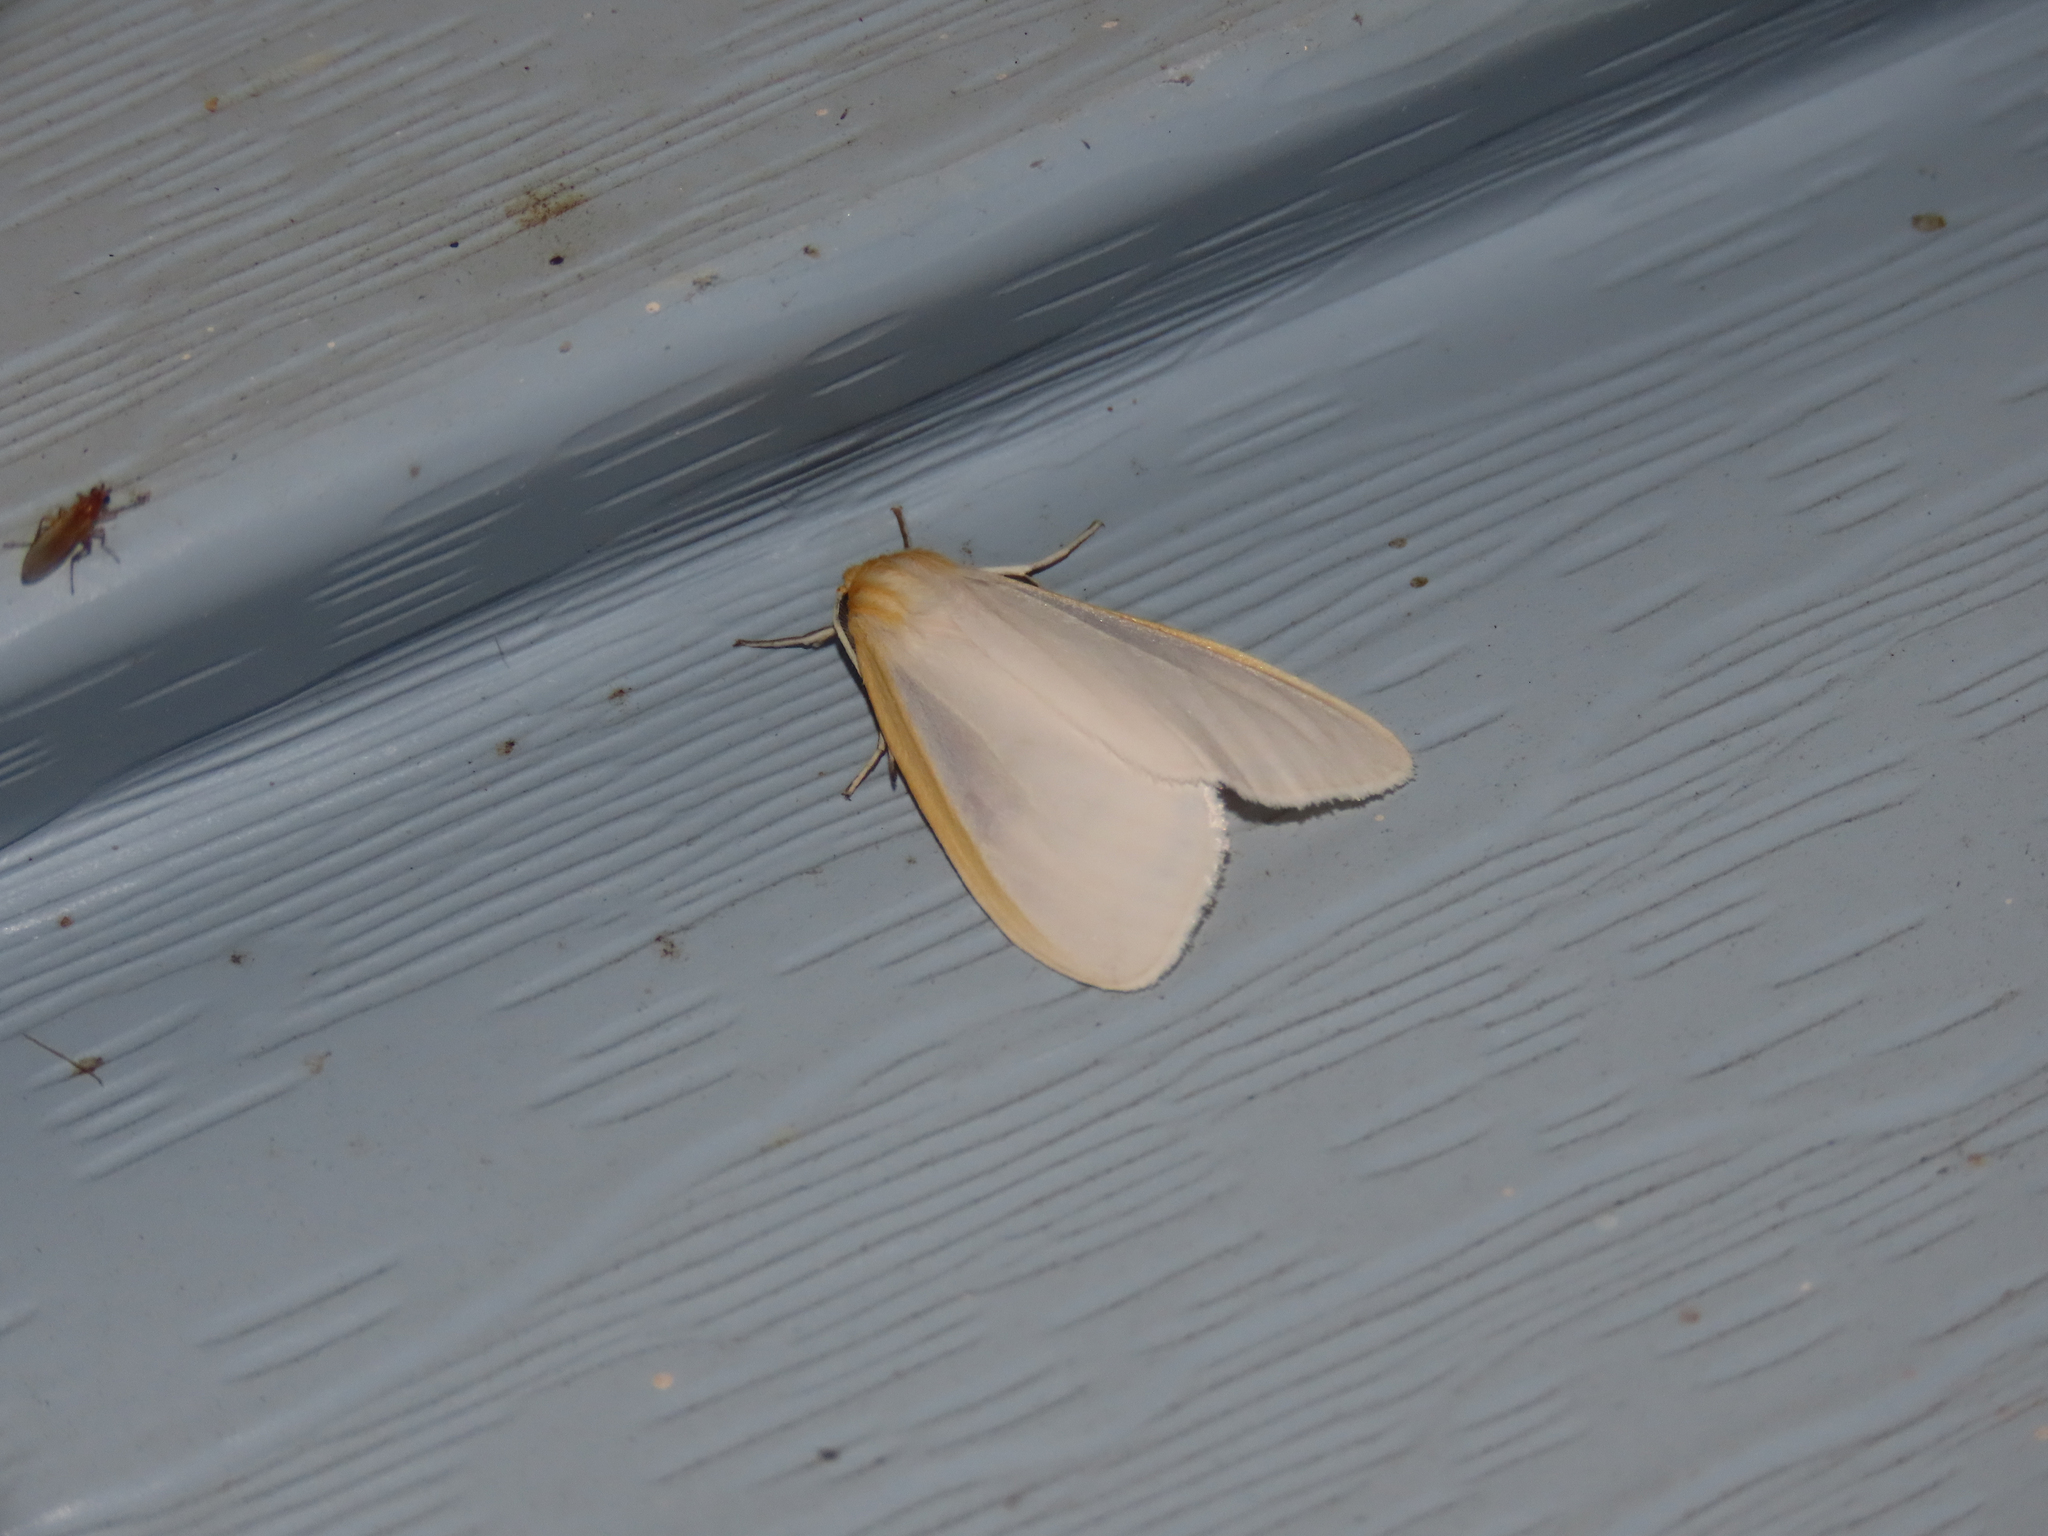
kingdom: Animalia
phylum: Arthropoda
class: Insecta
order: Lepidoptera
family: Erebidae
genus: Cycnia
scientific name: Cycnia tenera
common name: Delicate cycnia moth
